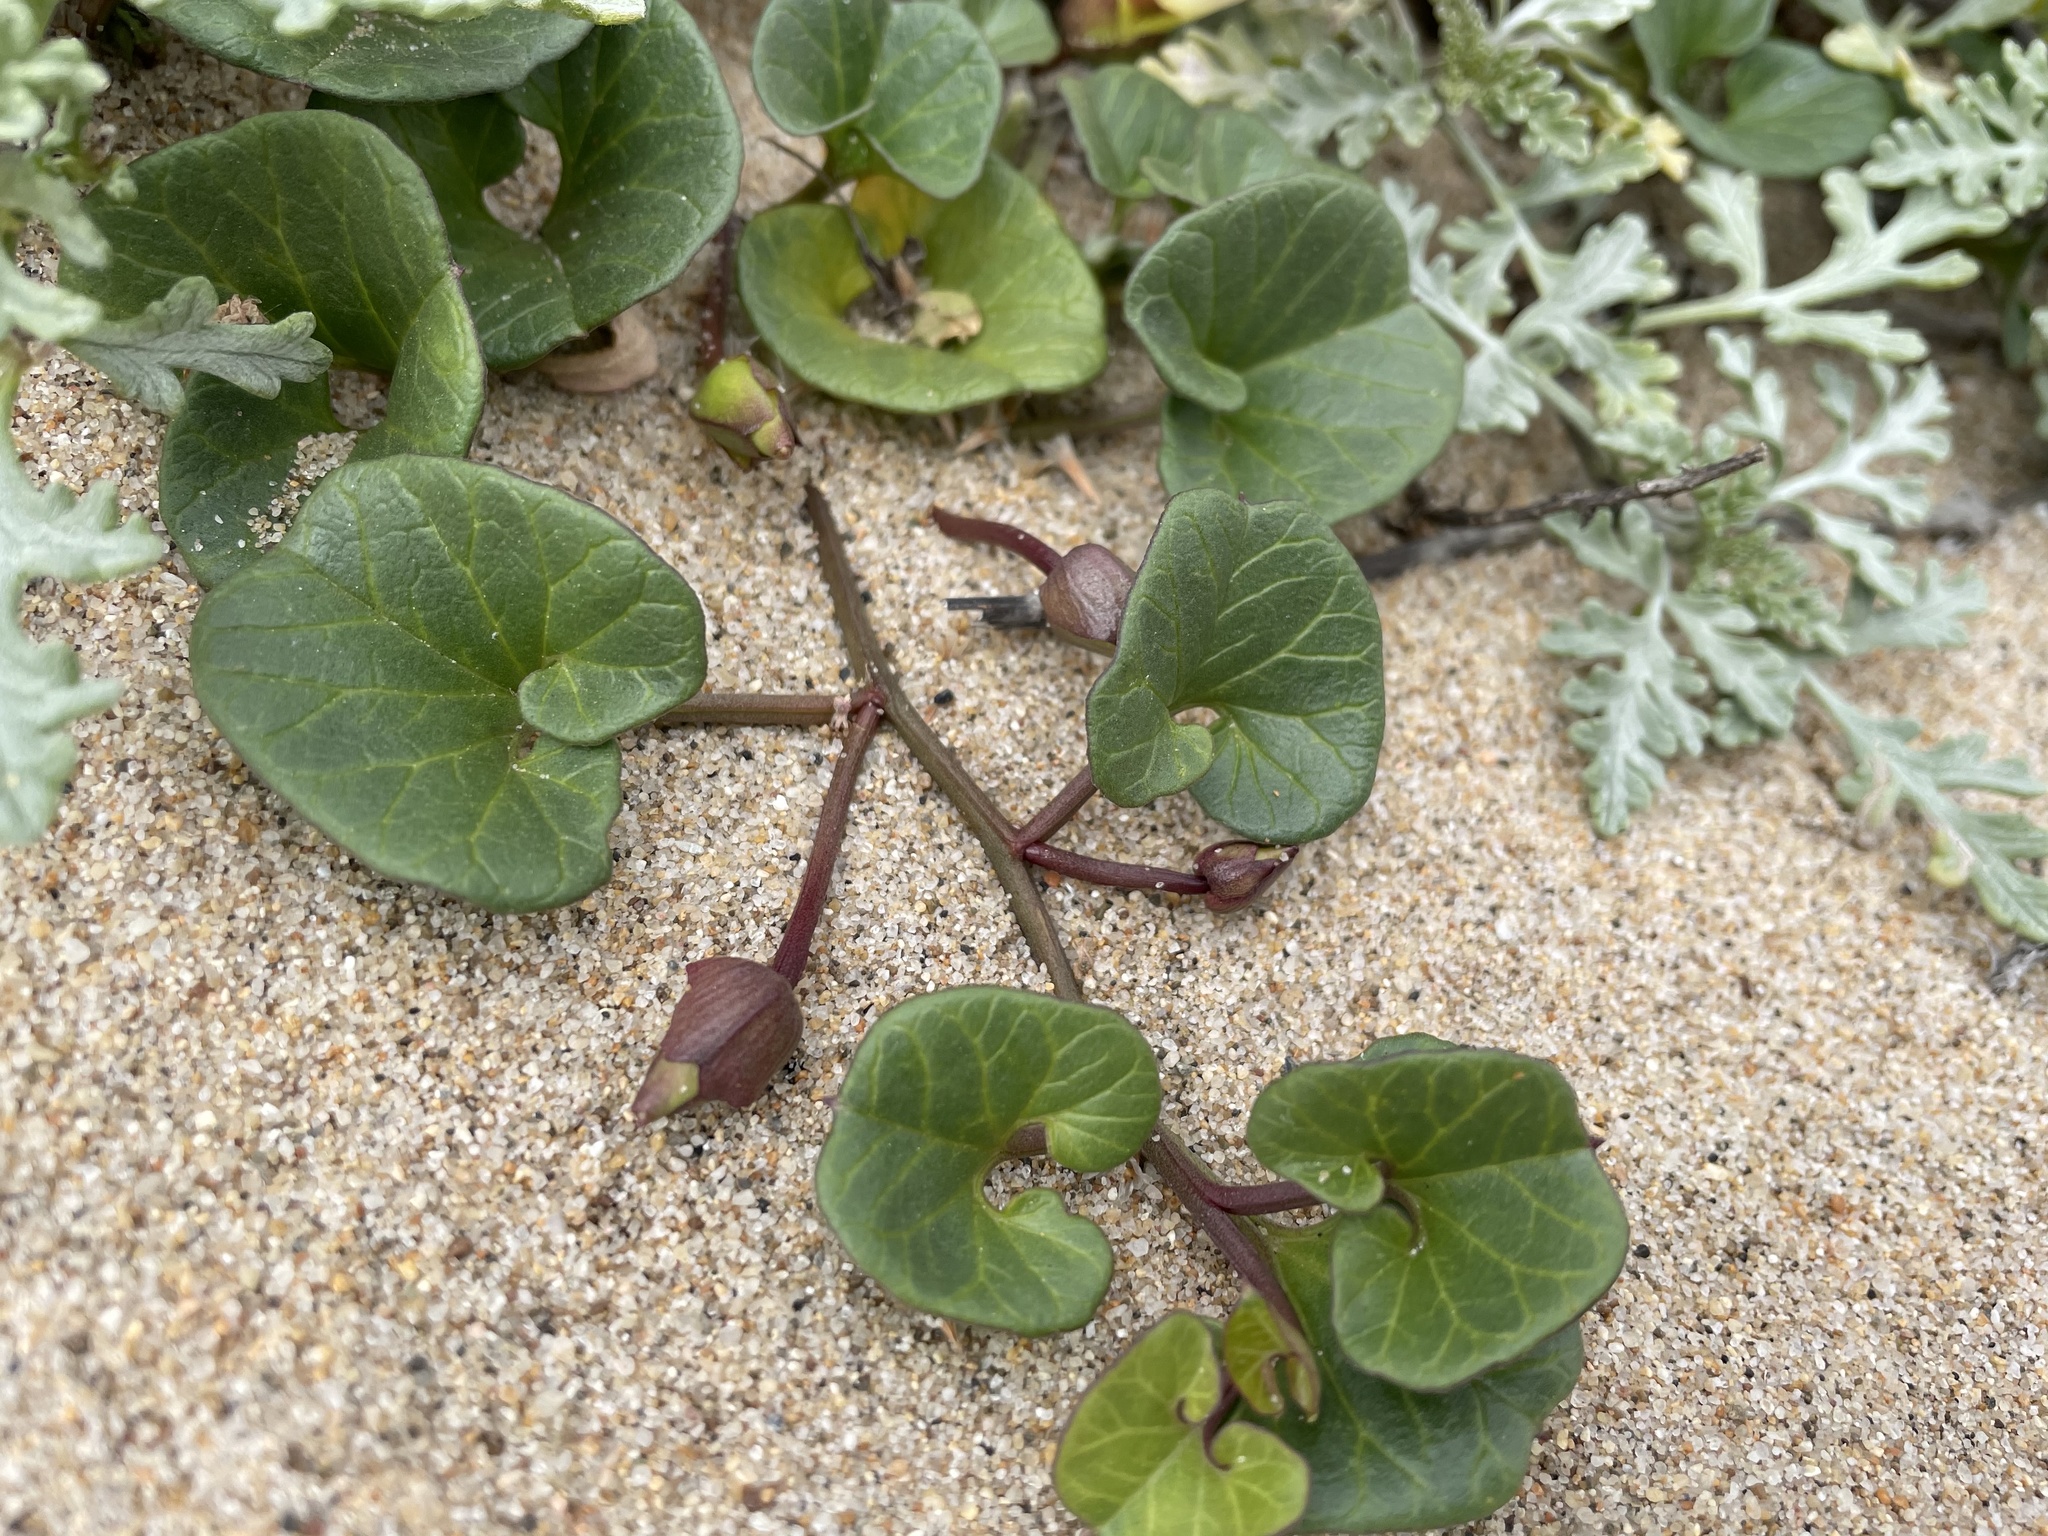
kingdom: Plantae
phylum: Tracheophyta
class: Magnoliopsida
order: Solanales
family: Convolvulaceae
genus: Calystegia
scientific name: Calystegia soldanella
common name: Sea bindweed
